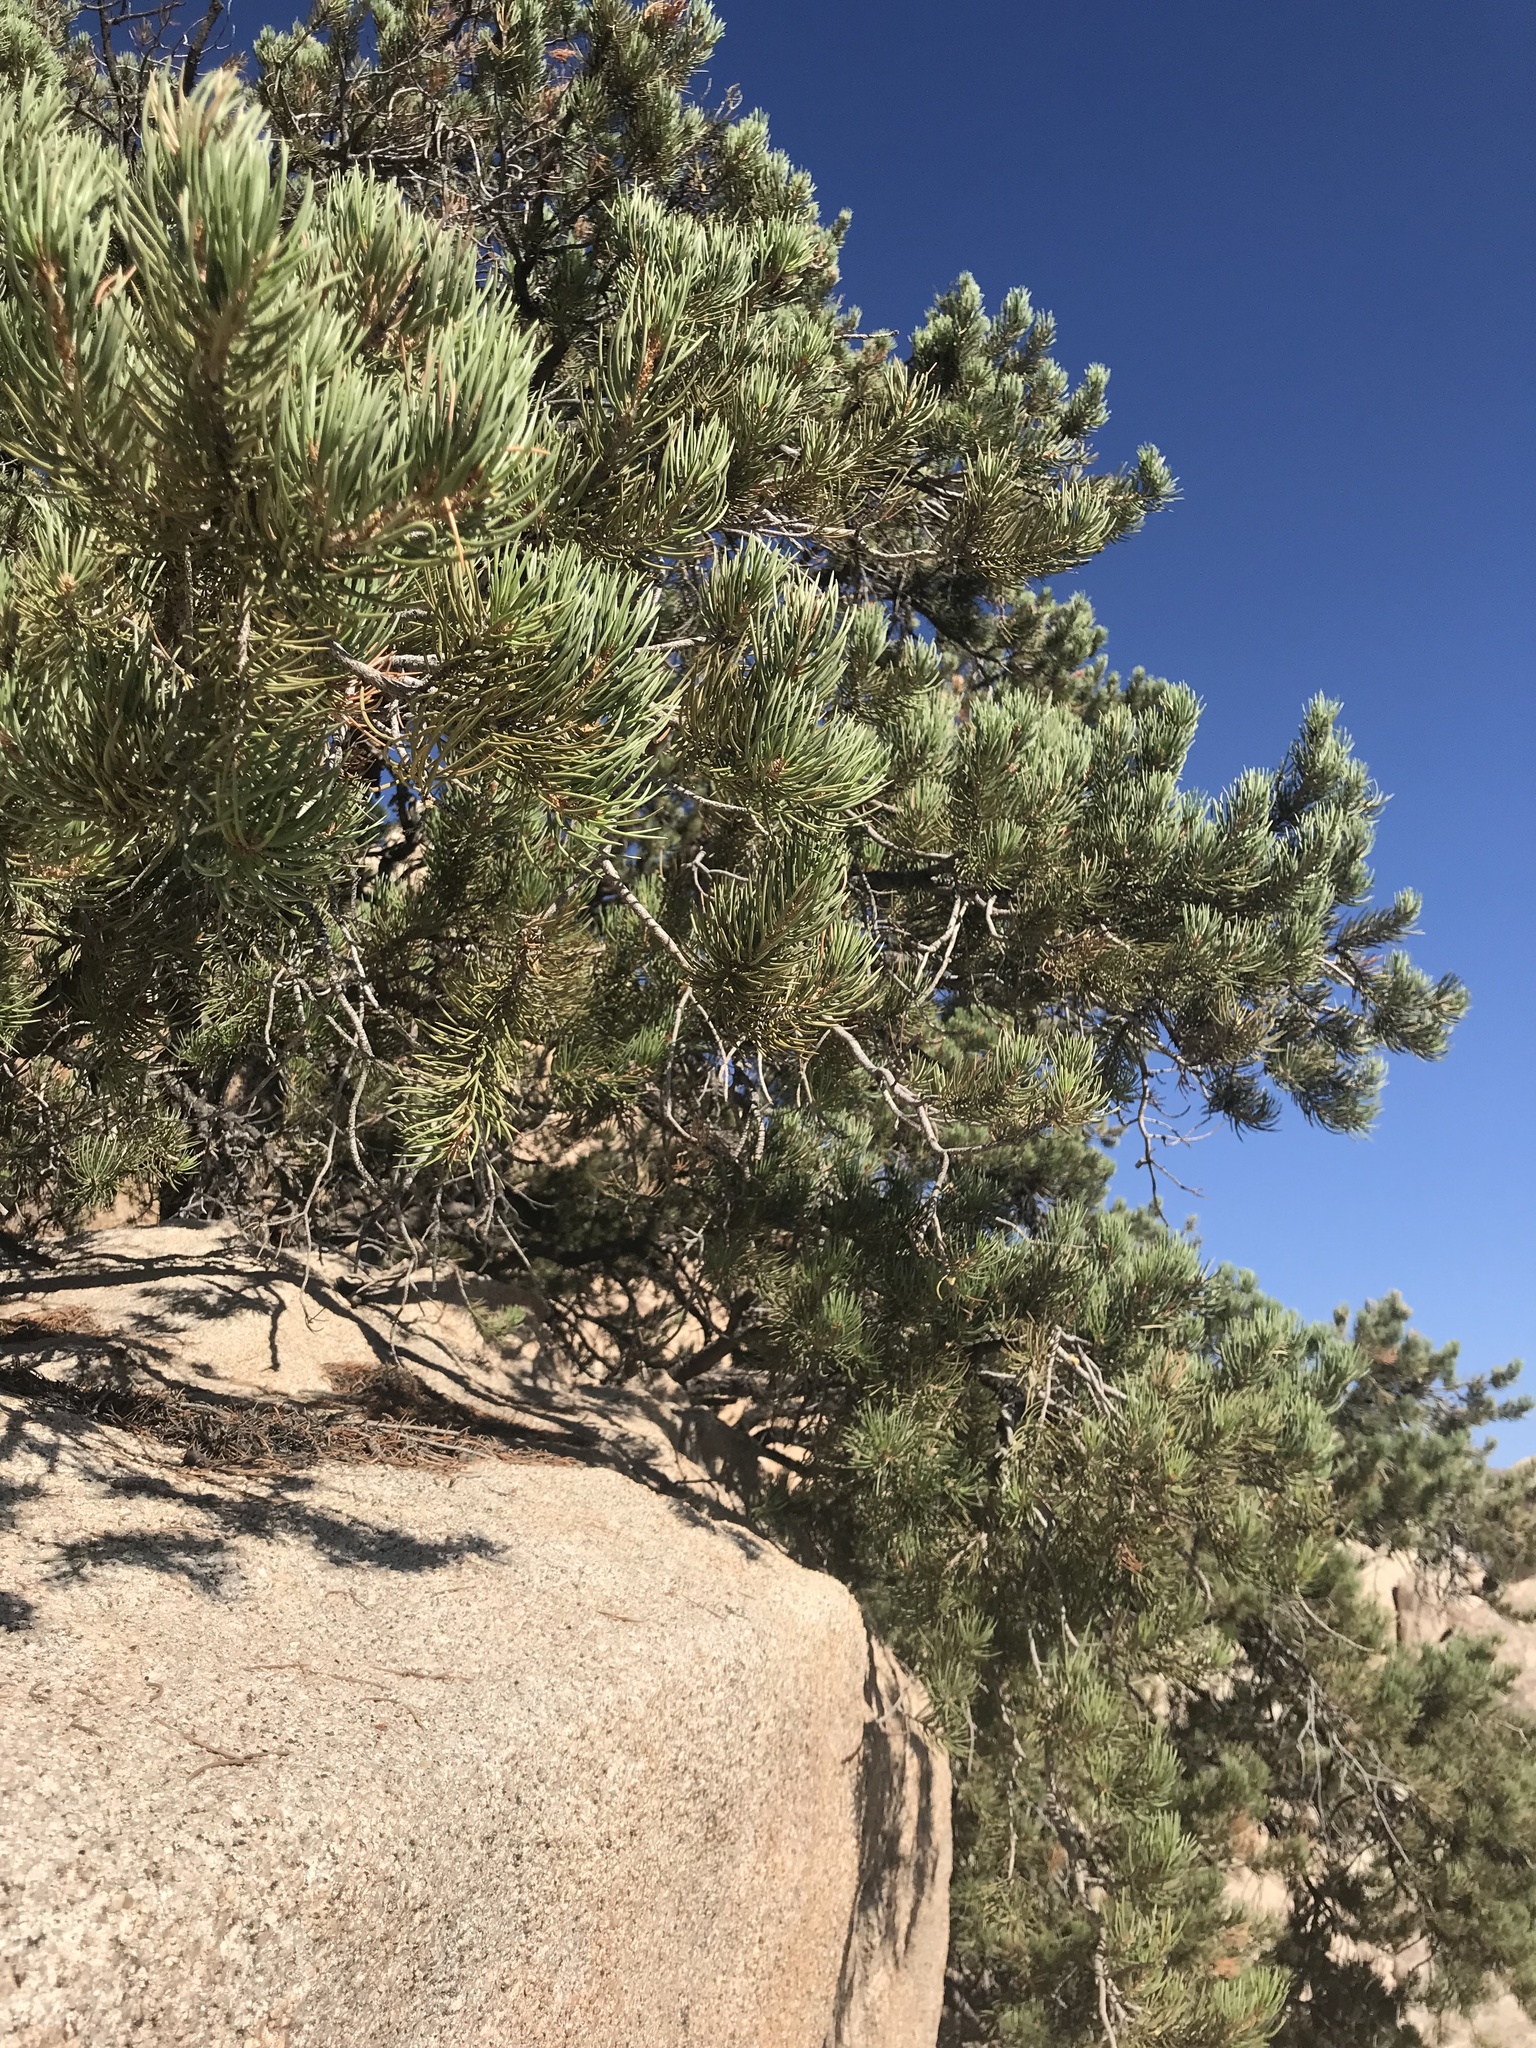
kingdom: Plantae
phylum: Tracheophyta
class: Pinopsida
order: Pinales
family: Pinaceae
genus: Pinus
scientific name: Pinus monophylla
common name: One-leaved nut pine
